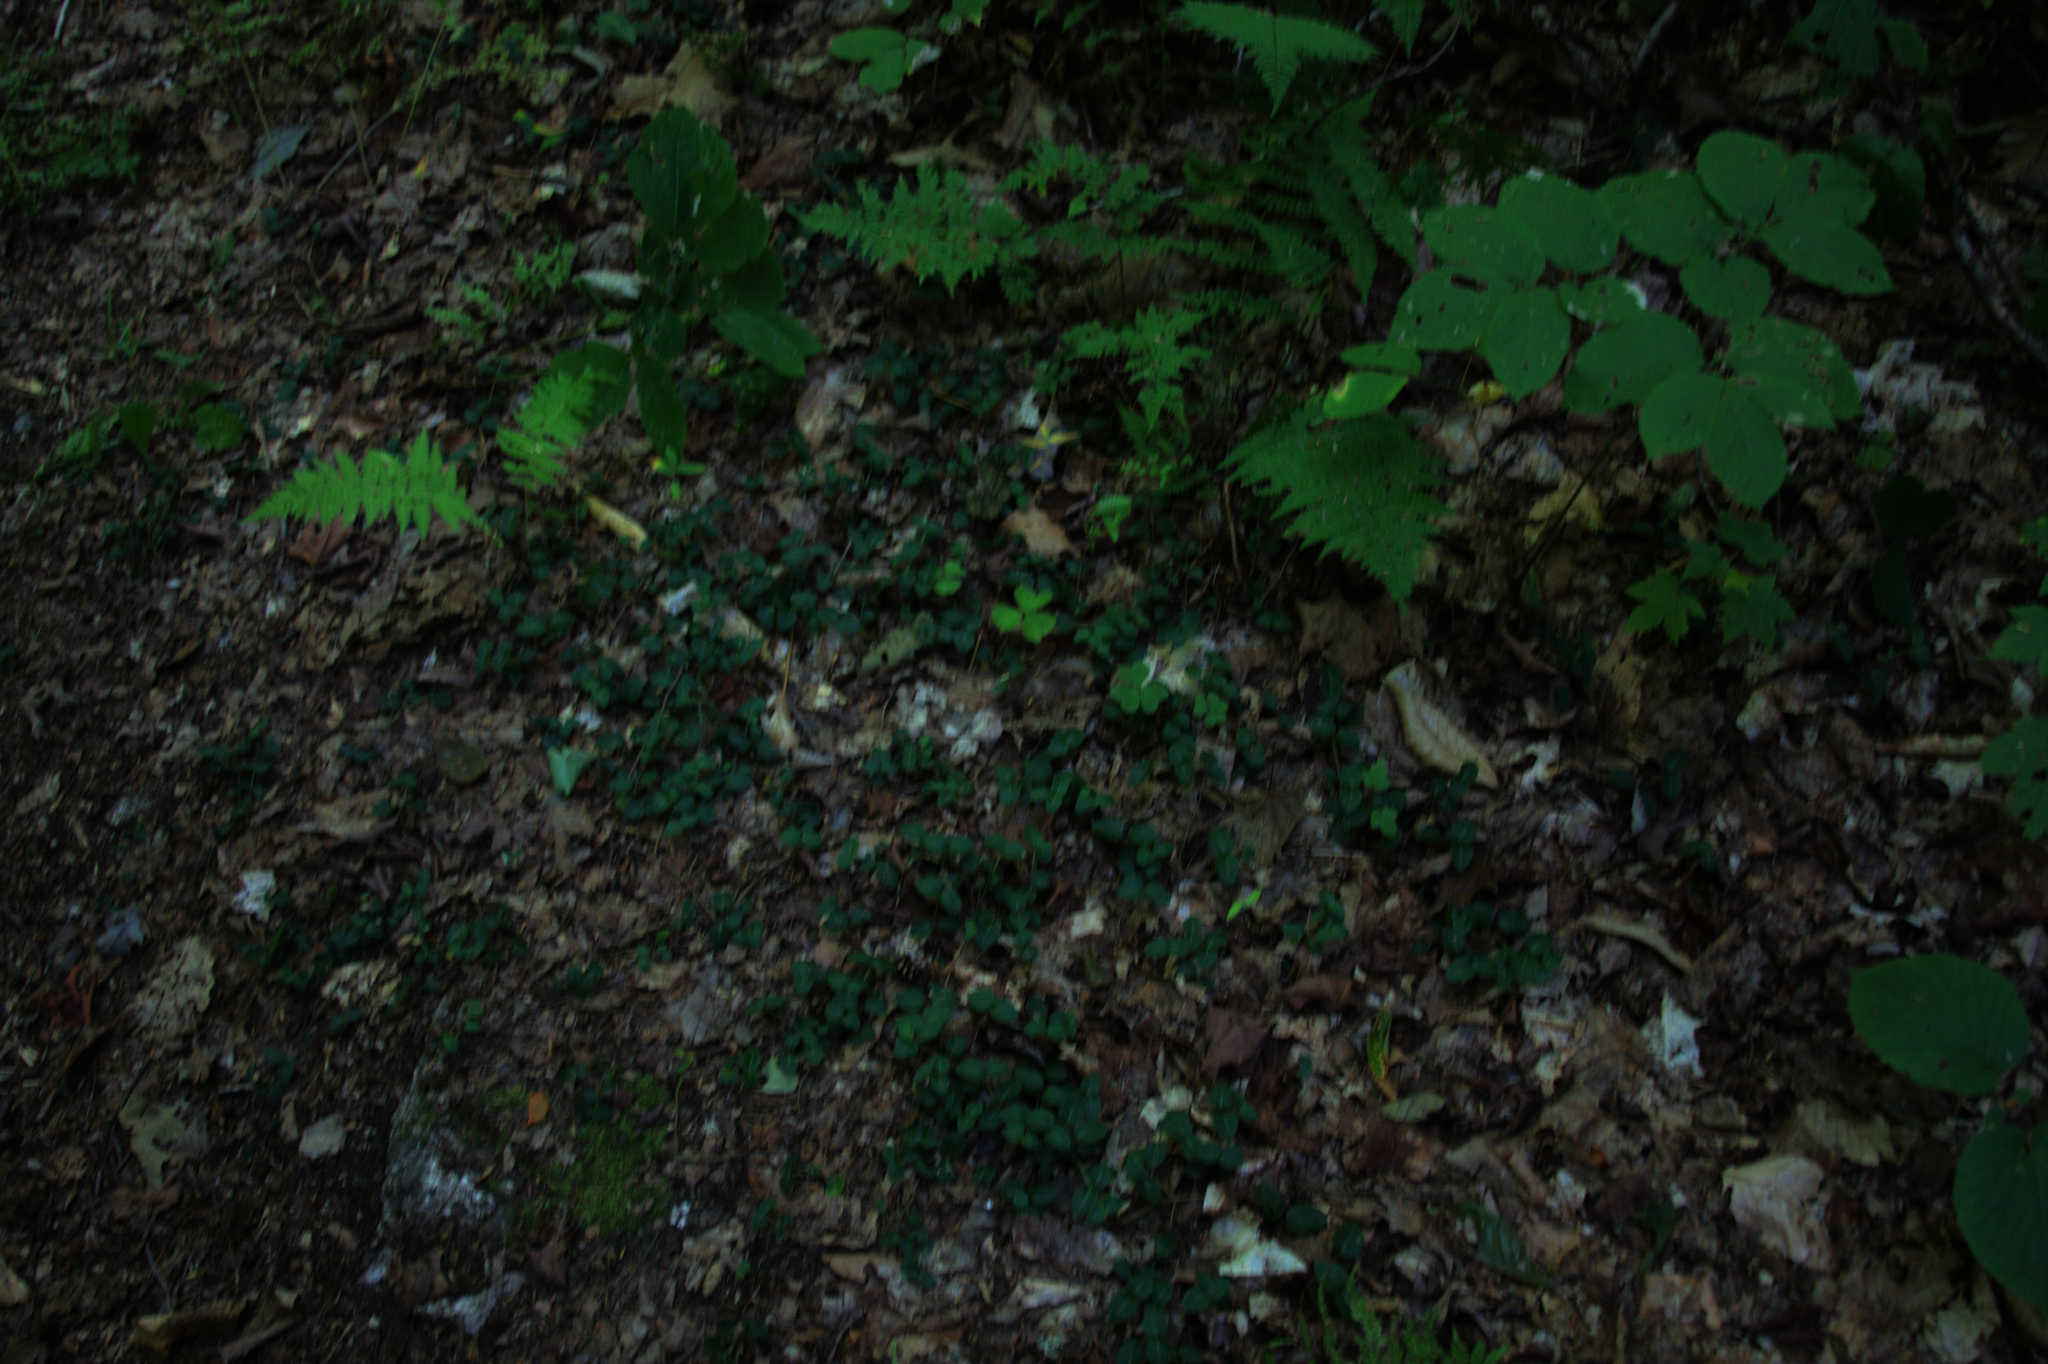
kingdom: Plantae
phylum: Tracheophyta
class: Magnoliopsida
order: Gentianales
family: Rubiaceae
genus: Mitchella
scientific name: Mitchella repens
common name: Partridge-berry
